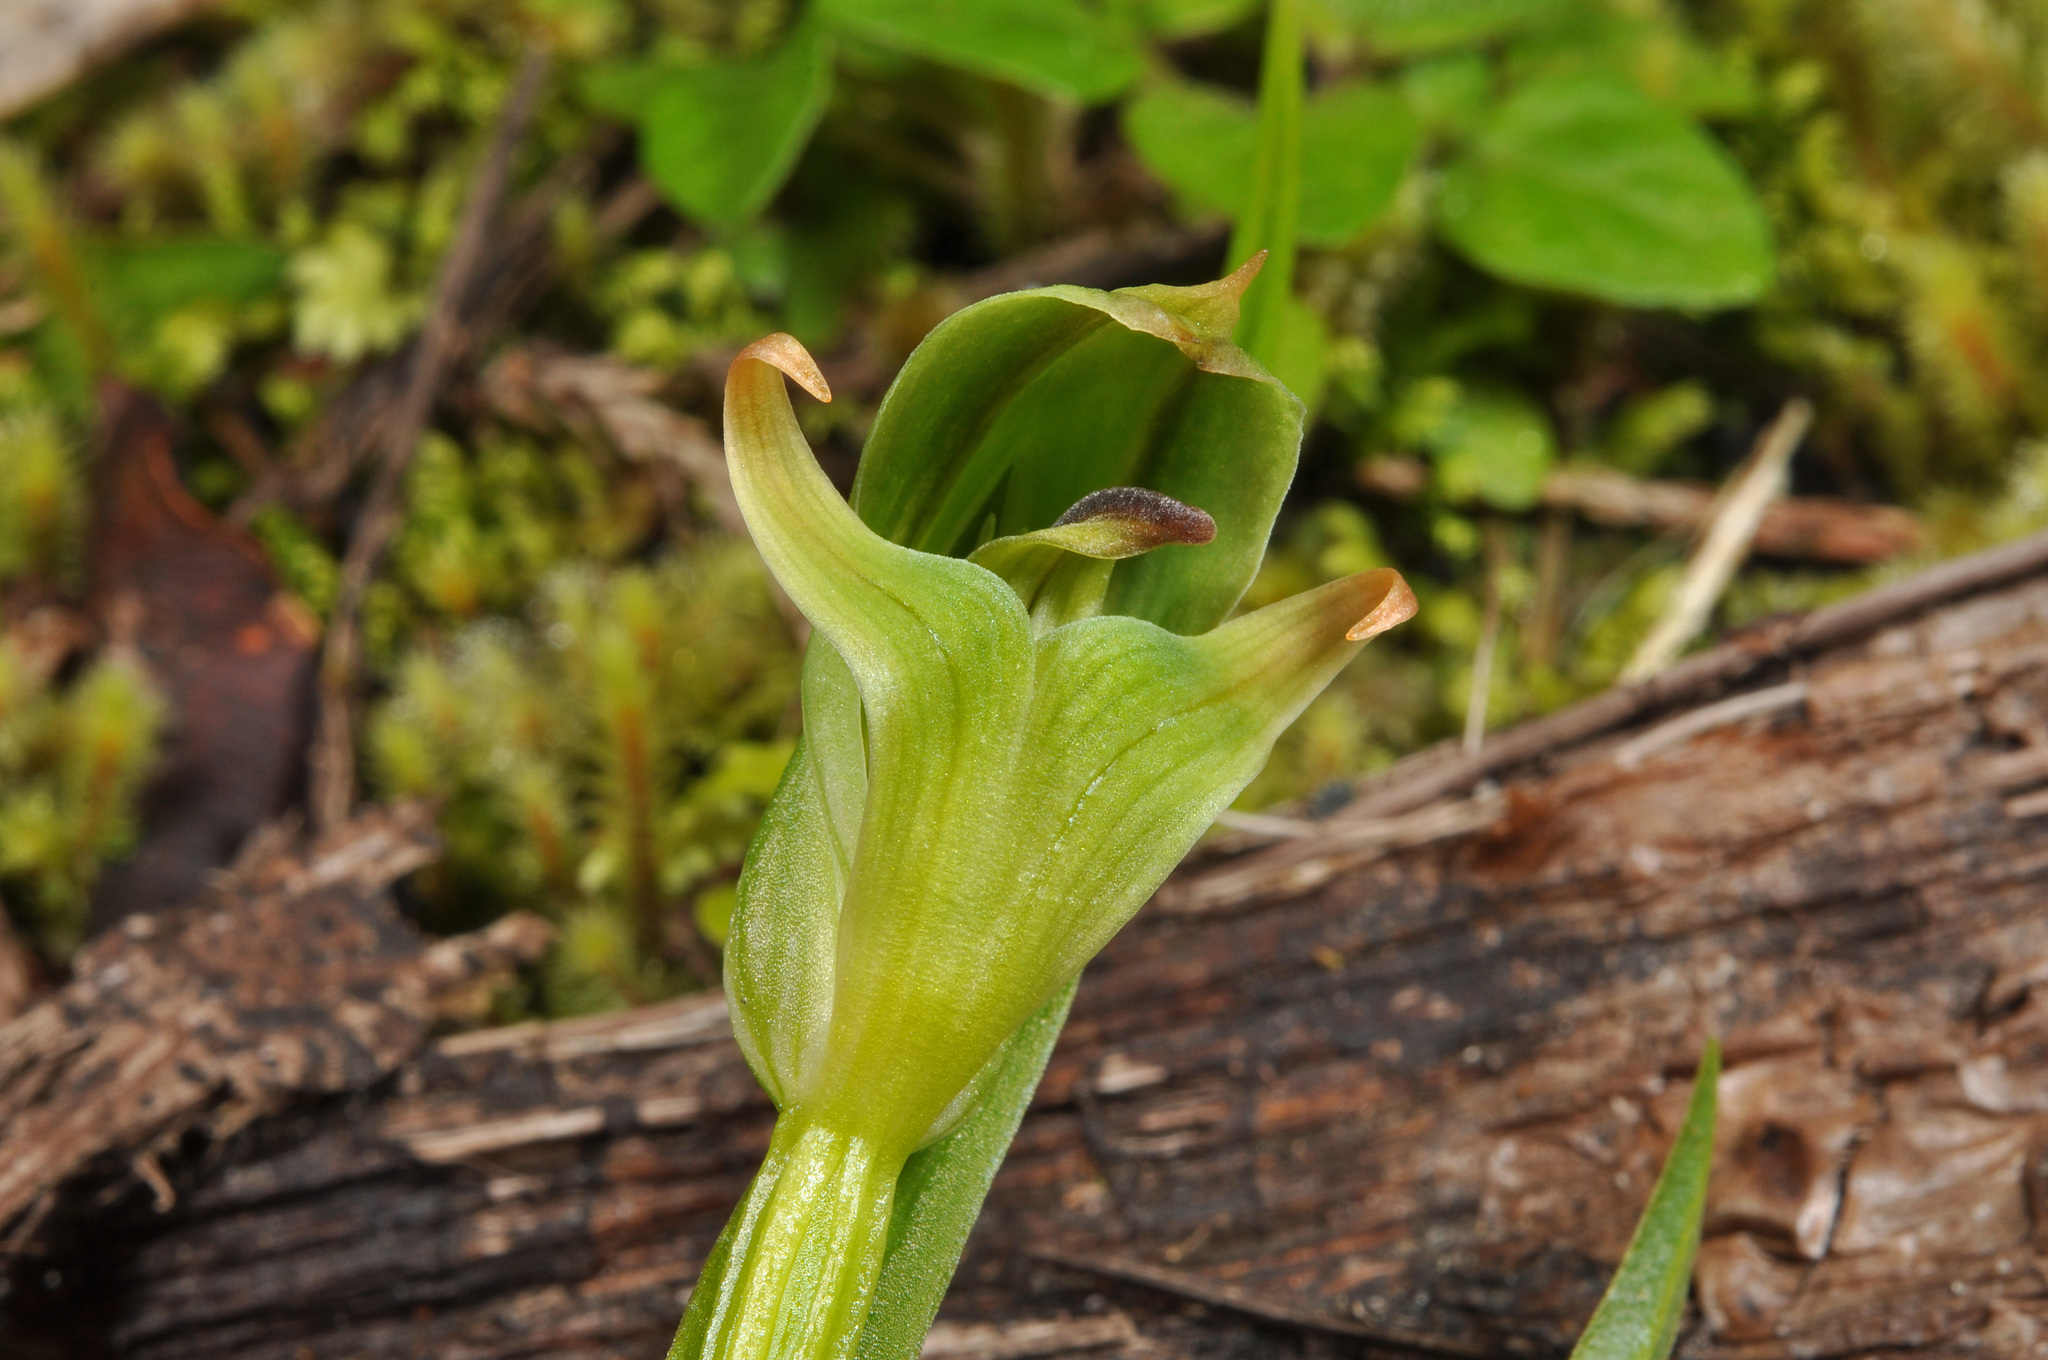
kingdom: Plantae
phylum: Tracheophyta
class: Liliopsida
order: Asparagales
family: Orchidaceae
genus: Pterostylis
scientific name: Pterostylis montana
